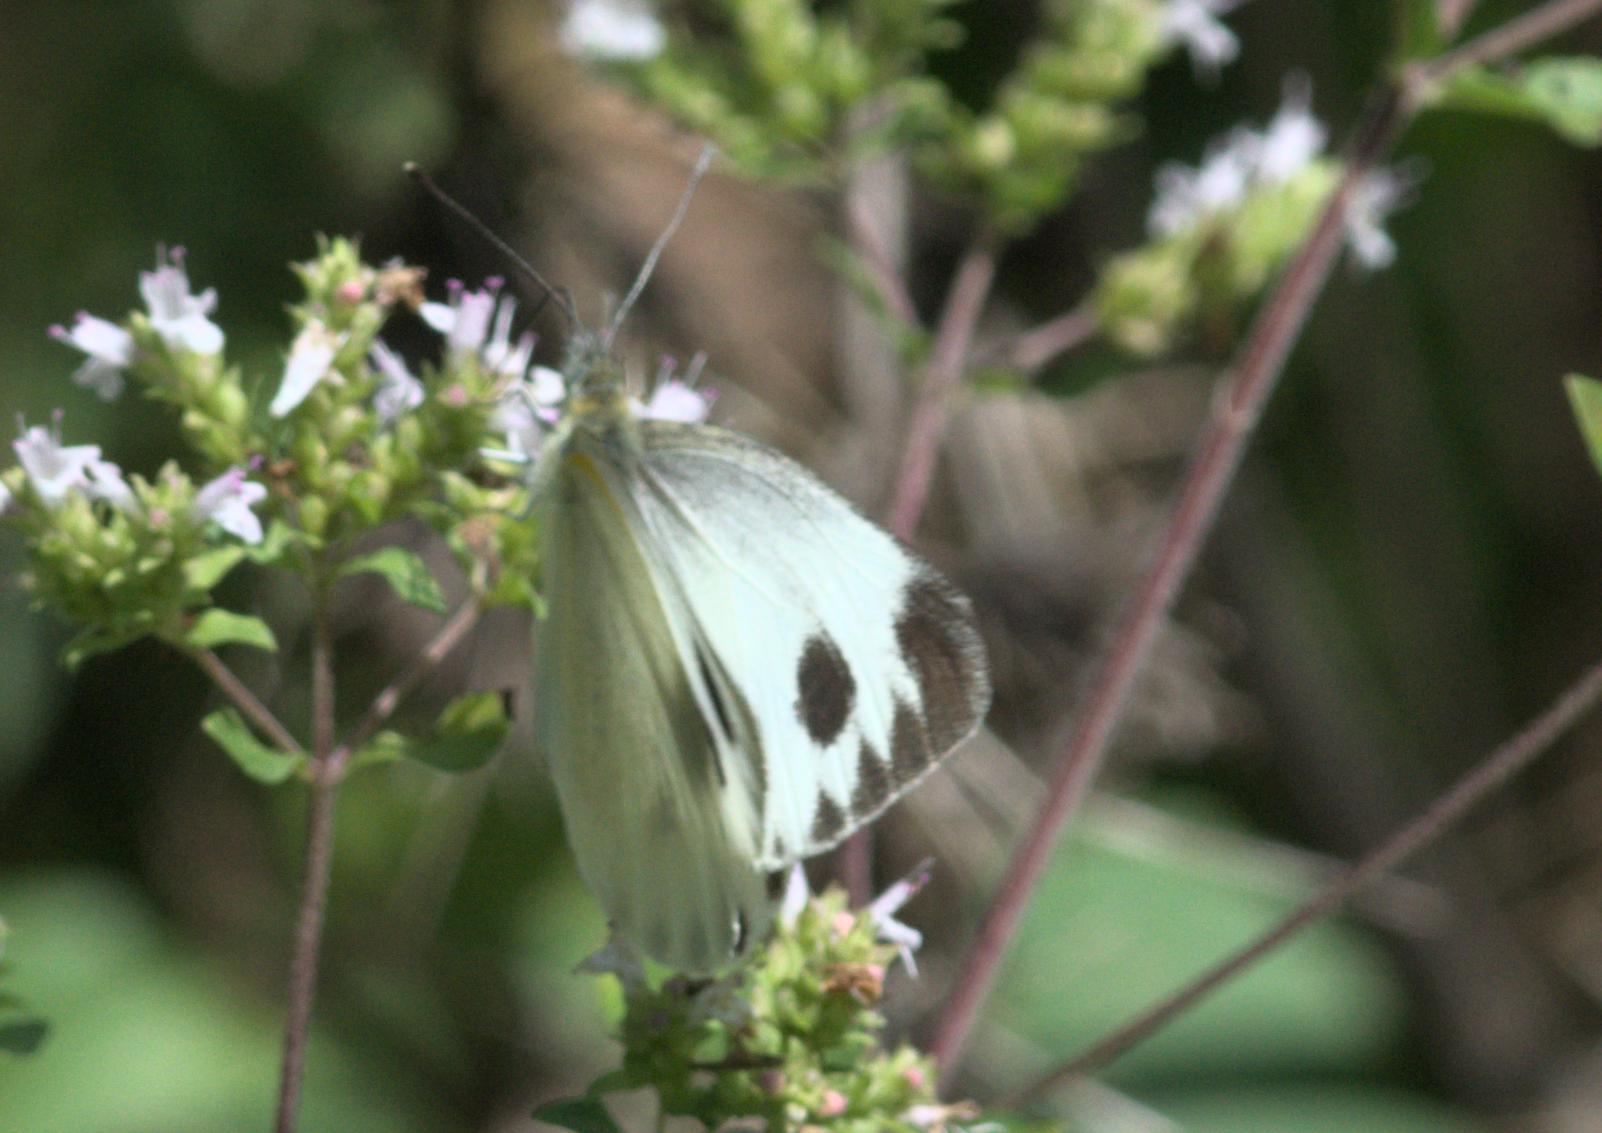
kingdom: Animalia
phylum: Arthropoda
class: Insecta
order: Lepidoptera
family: Pieridae
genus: Pieris
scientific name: Pieris canidia
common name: Indian cabbage white
